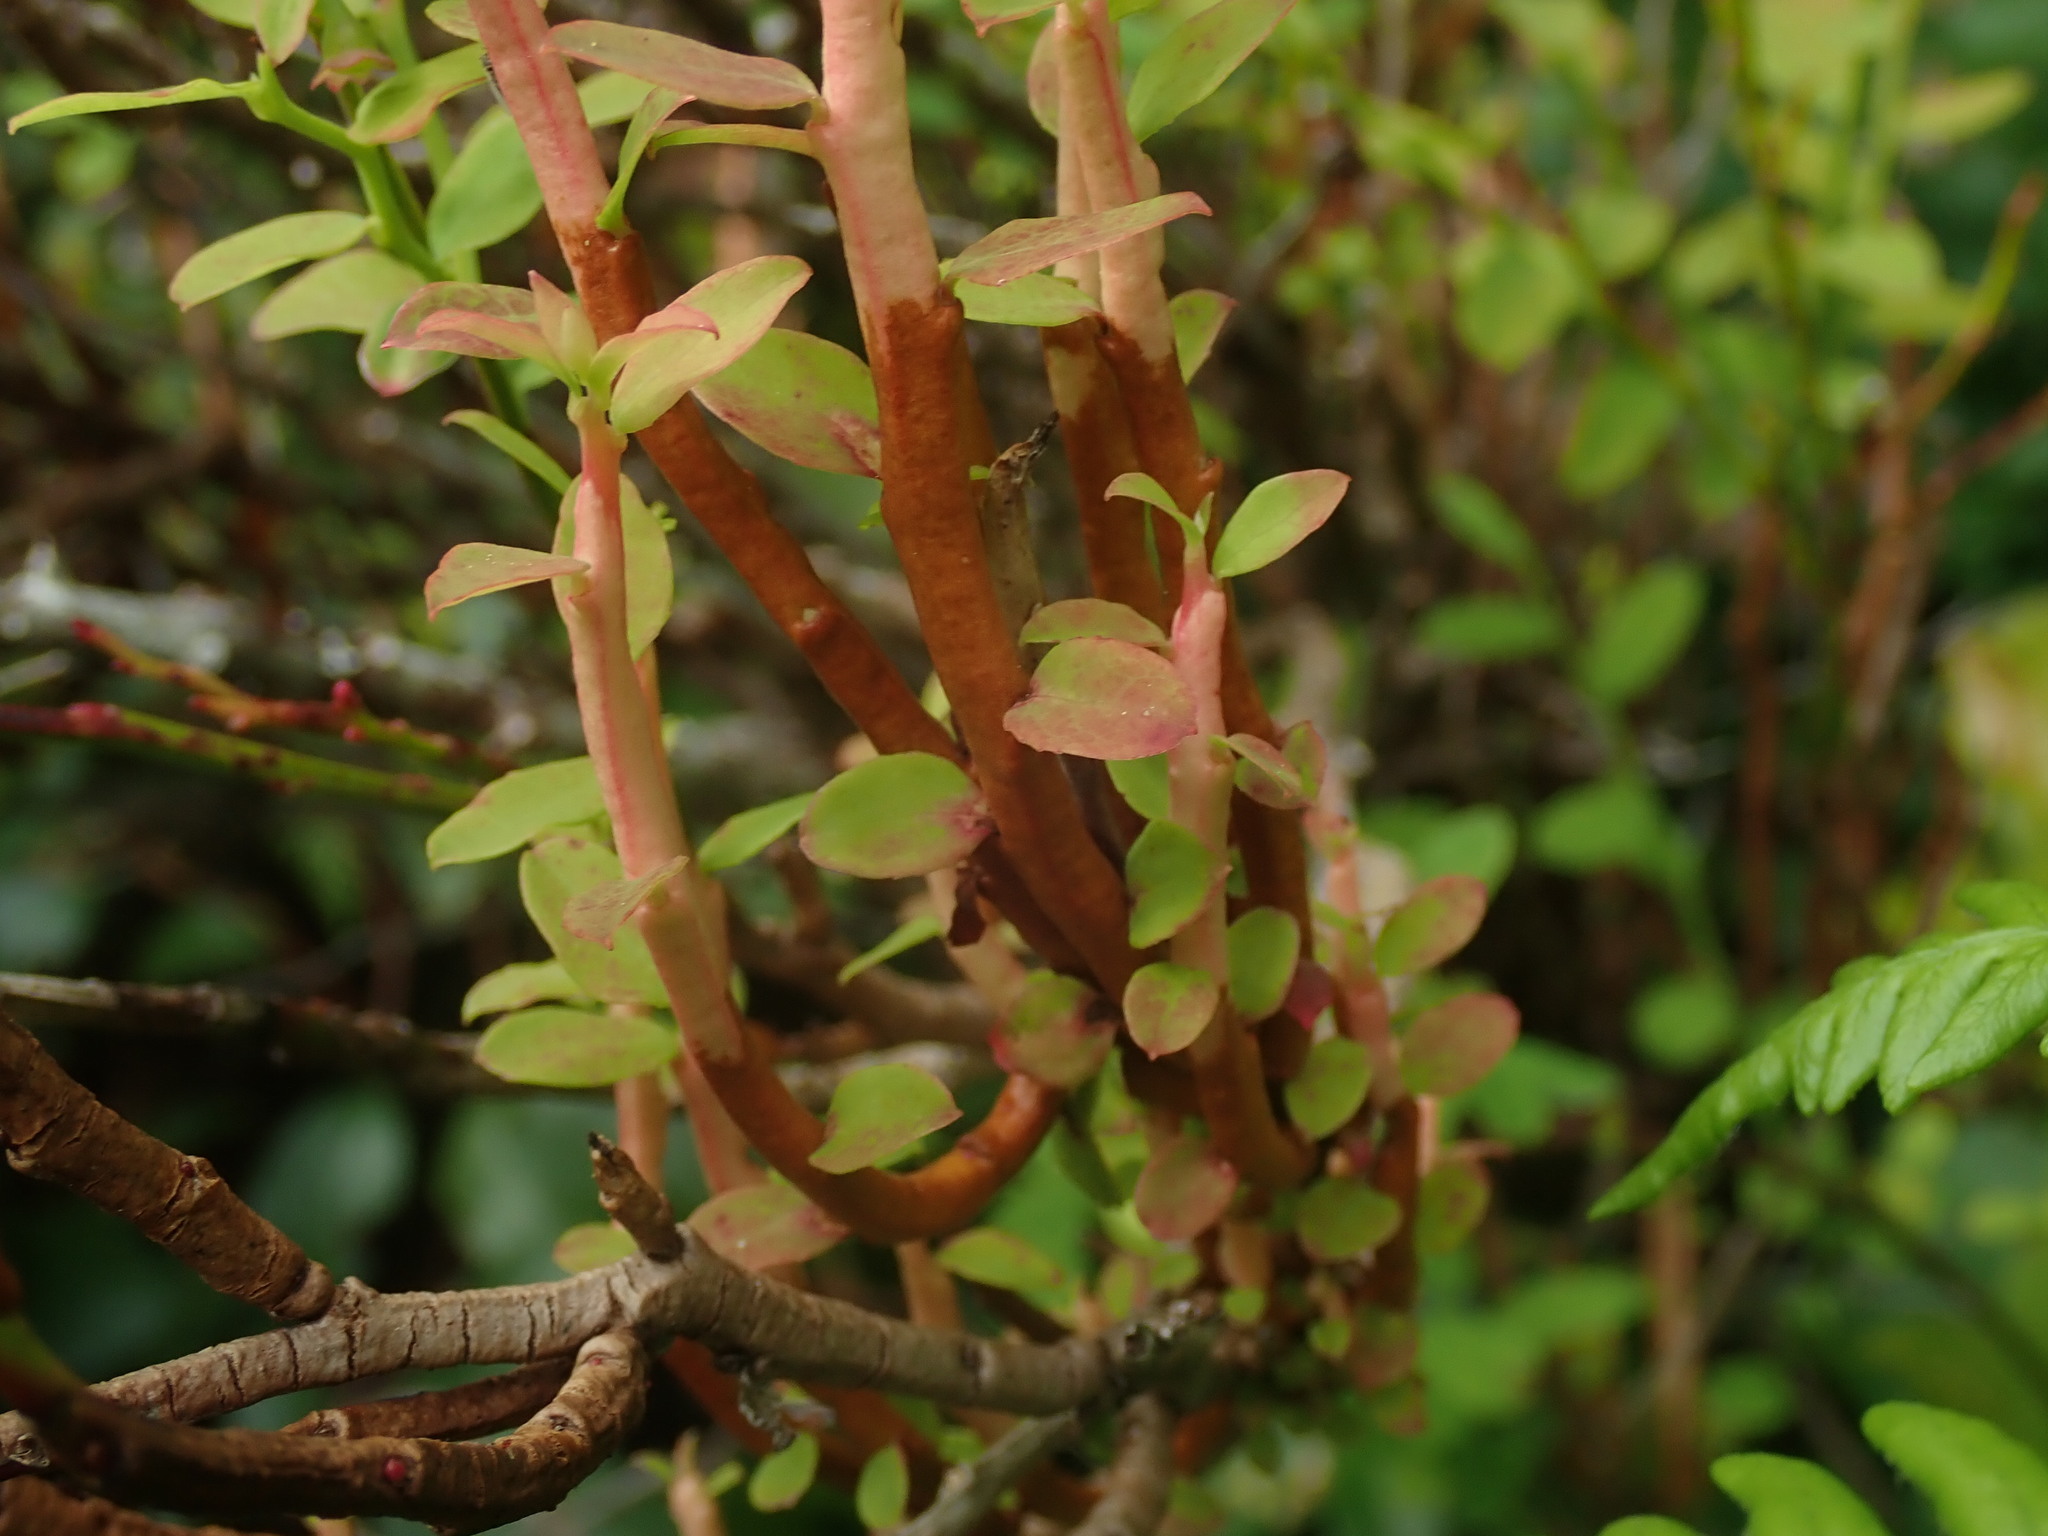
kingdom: Fungi
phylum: Basidiomycota
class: Pucciniomycetes
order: Pucciniales
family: Pucciniastraceae
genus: Calyptospora
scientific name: Calyptospora
